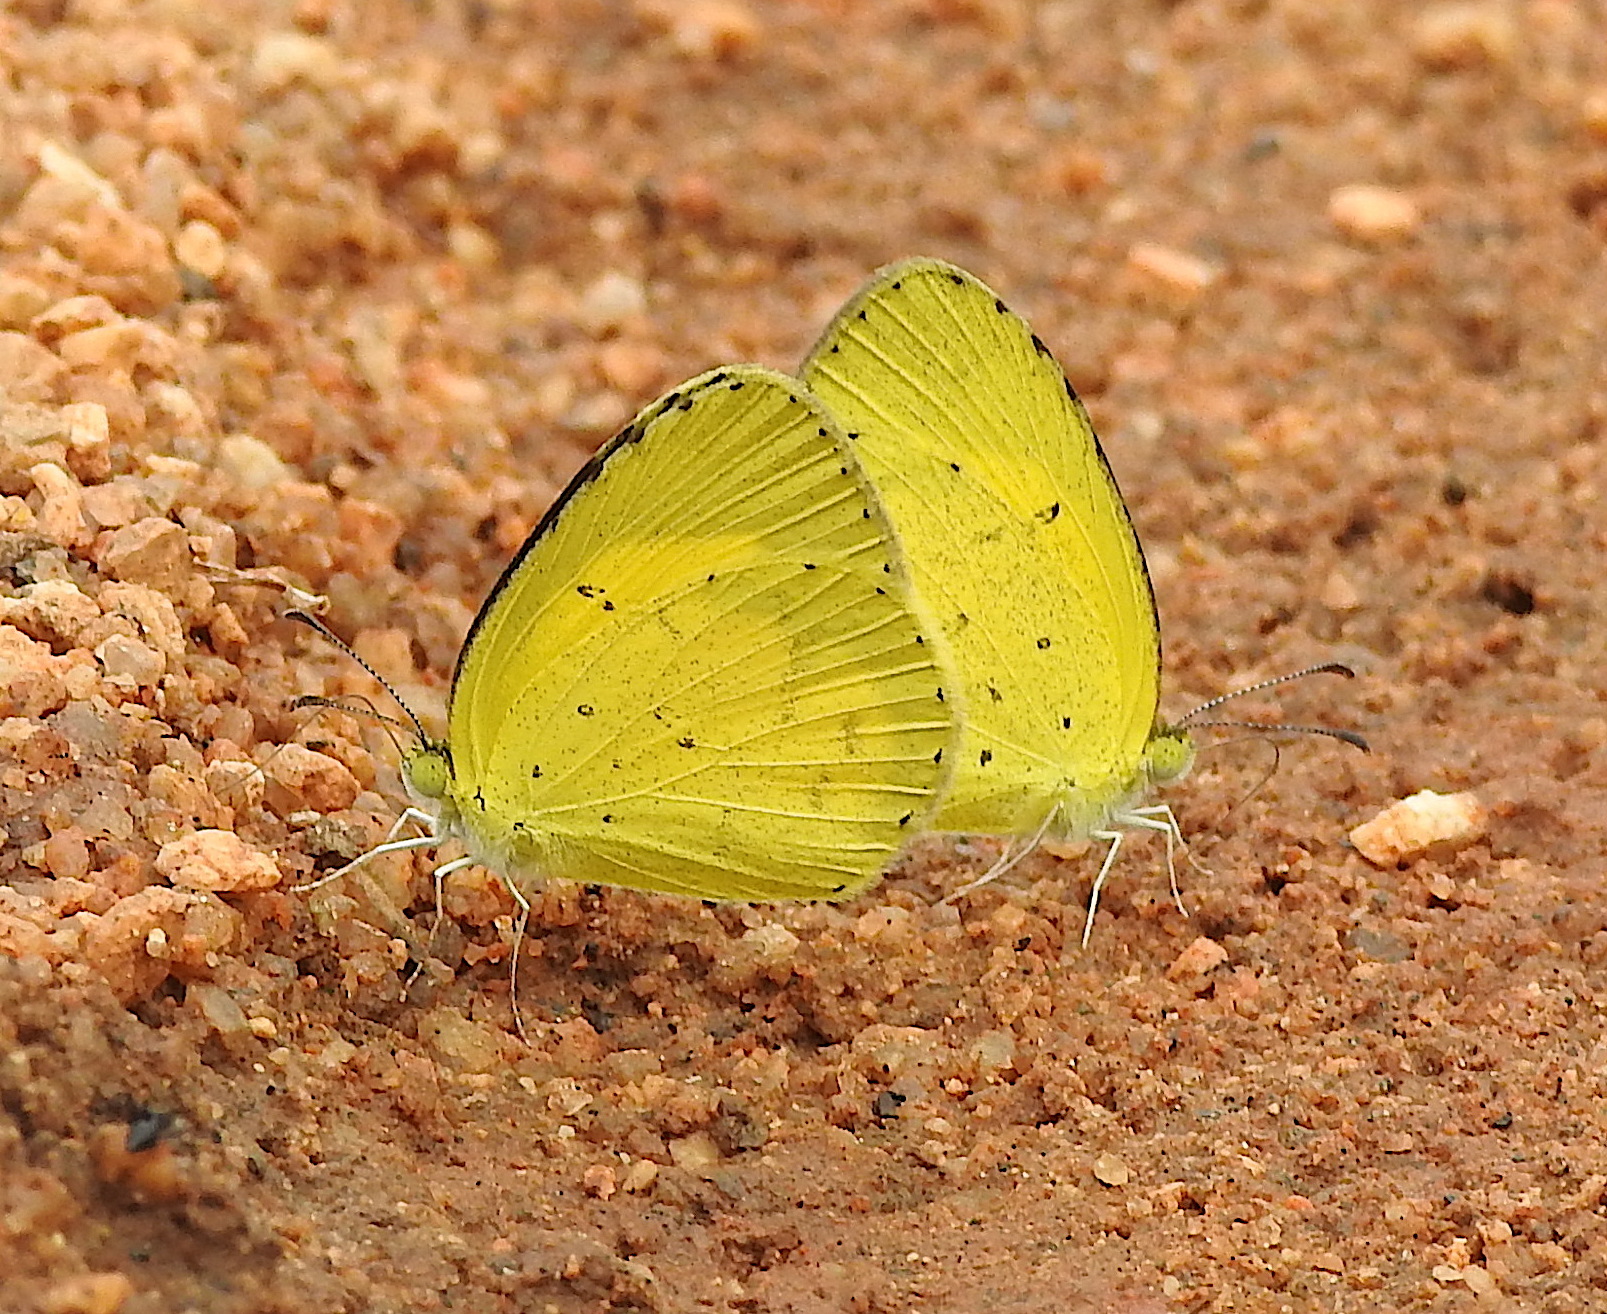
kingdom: Animalia
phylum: Arthropoda
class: Insecta
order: Lepidoptera
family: Pieridae
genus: Eurema
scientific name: Eurema brigitta
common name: Small grass yellow
